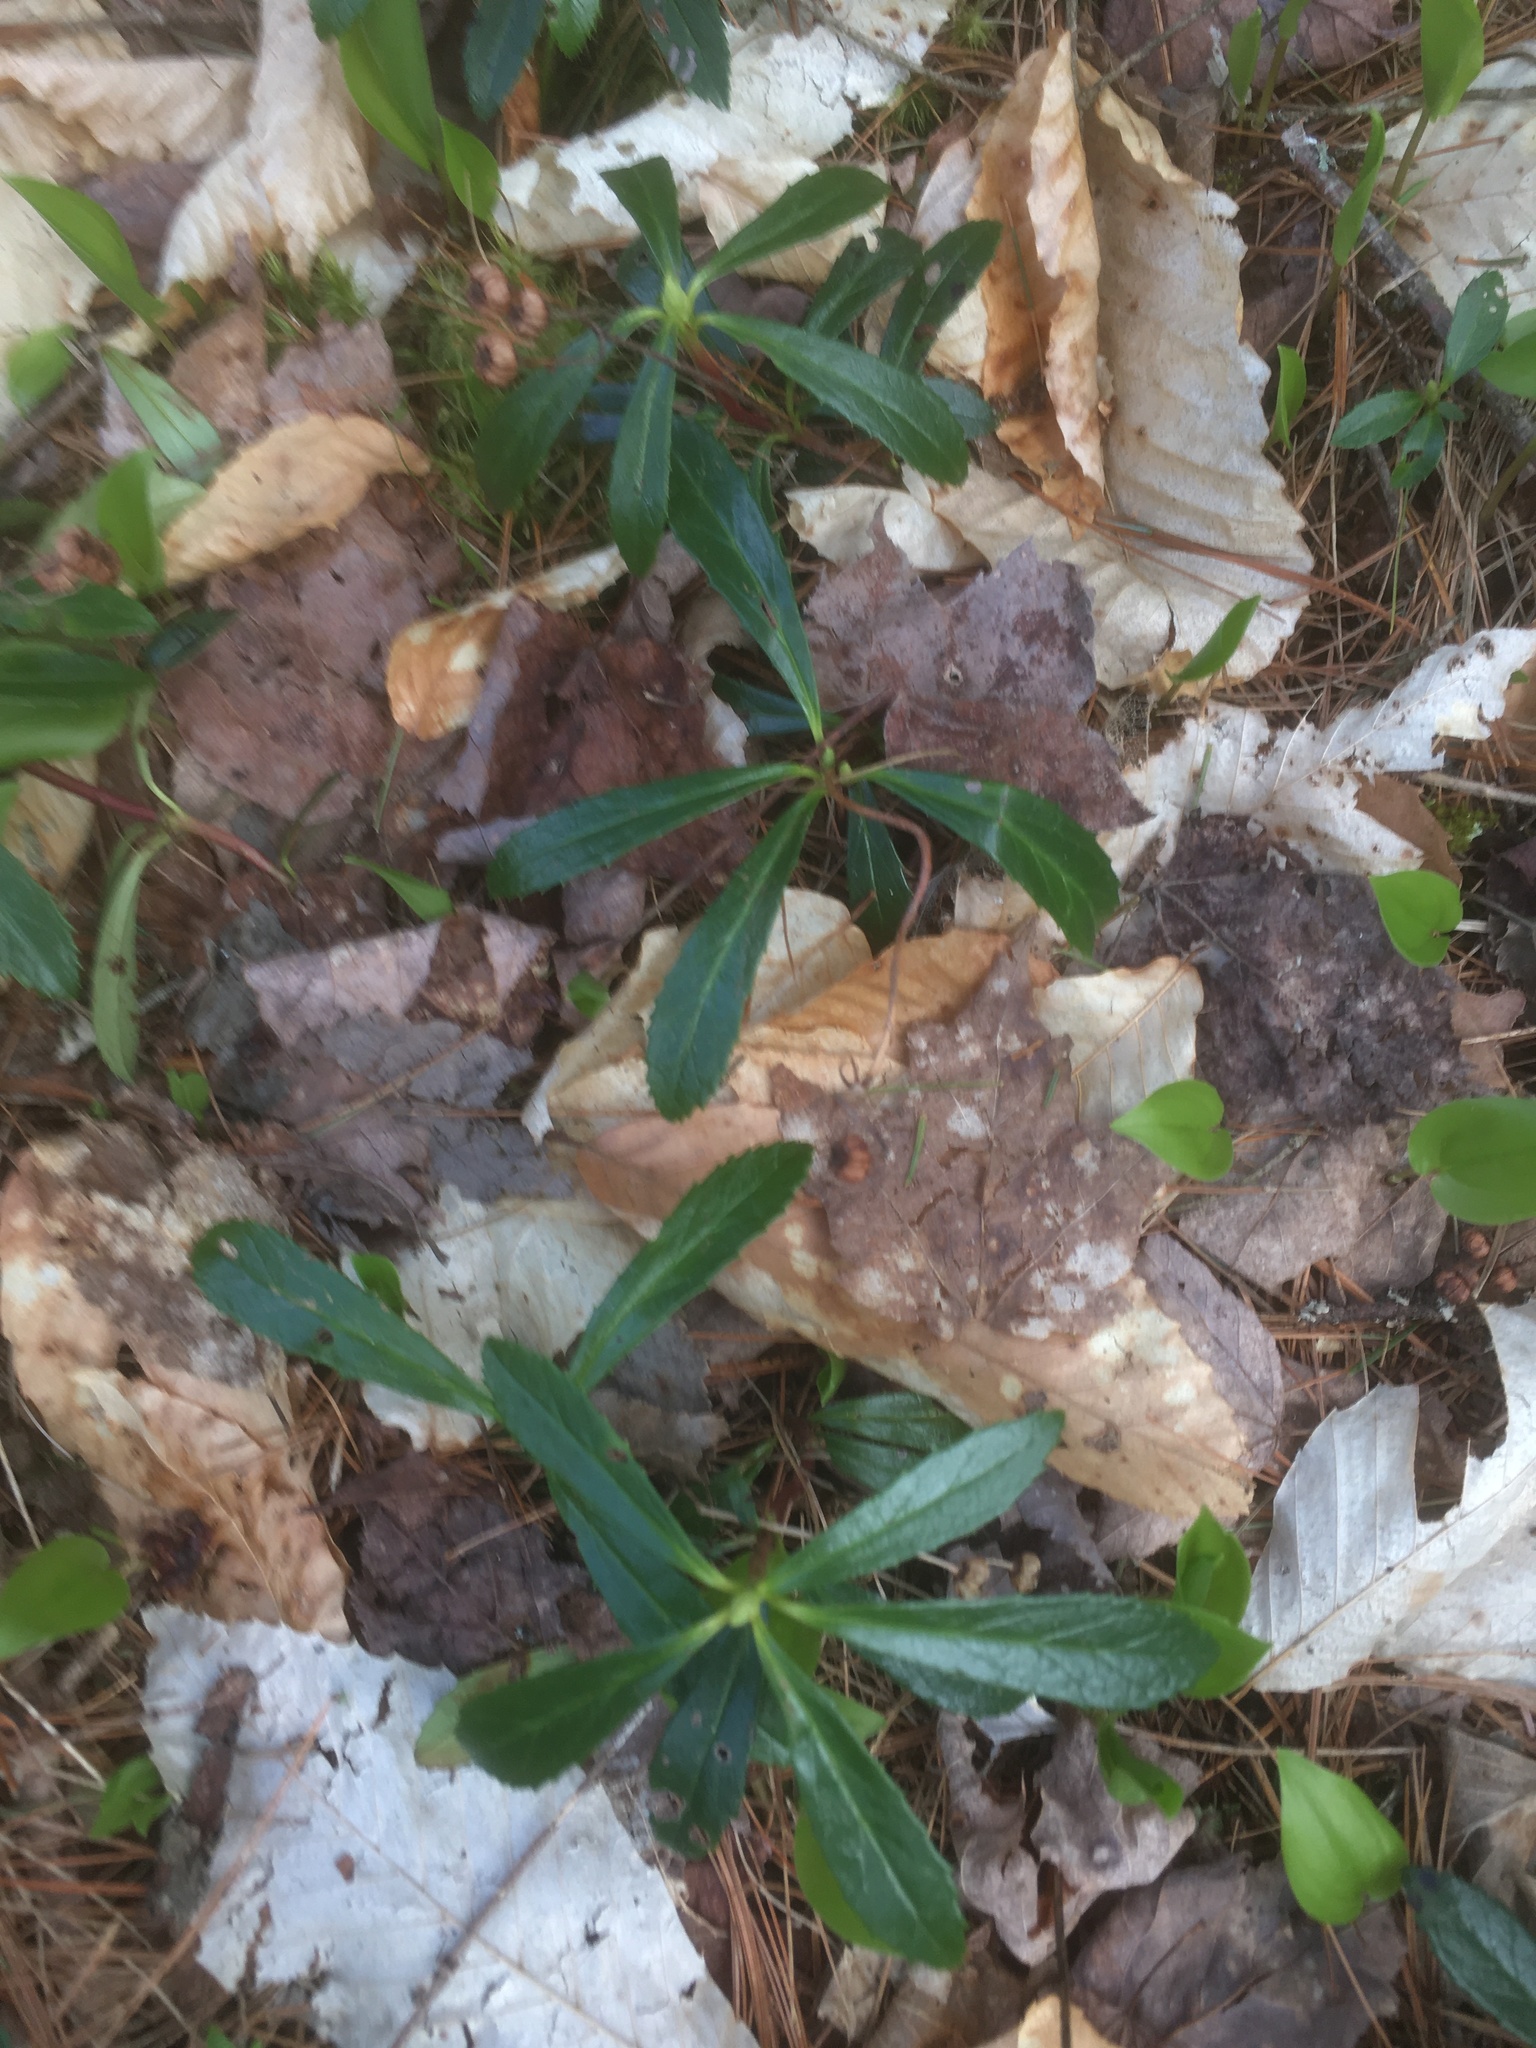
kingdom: Plantae
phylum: Tracheophyta
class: Magnoliopsida
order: Ericales
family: Ericaceae
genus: Chimaphila
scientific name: Chimaphila umbellata
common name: Pipsissewa
